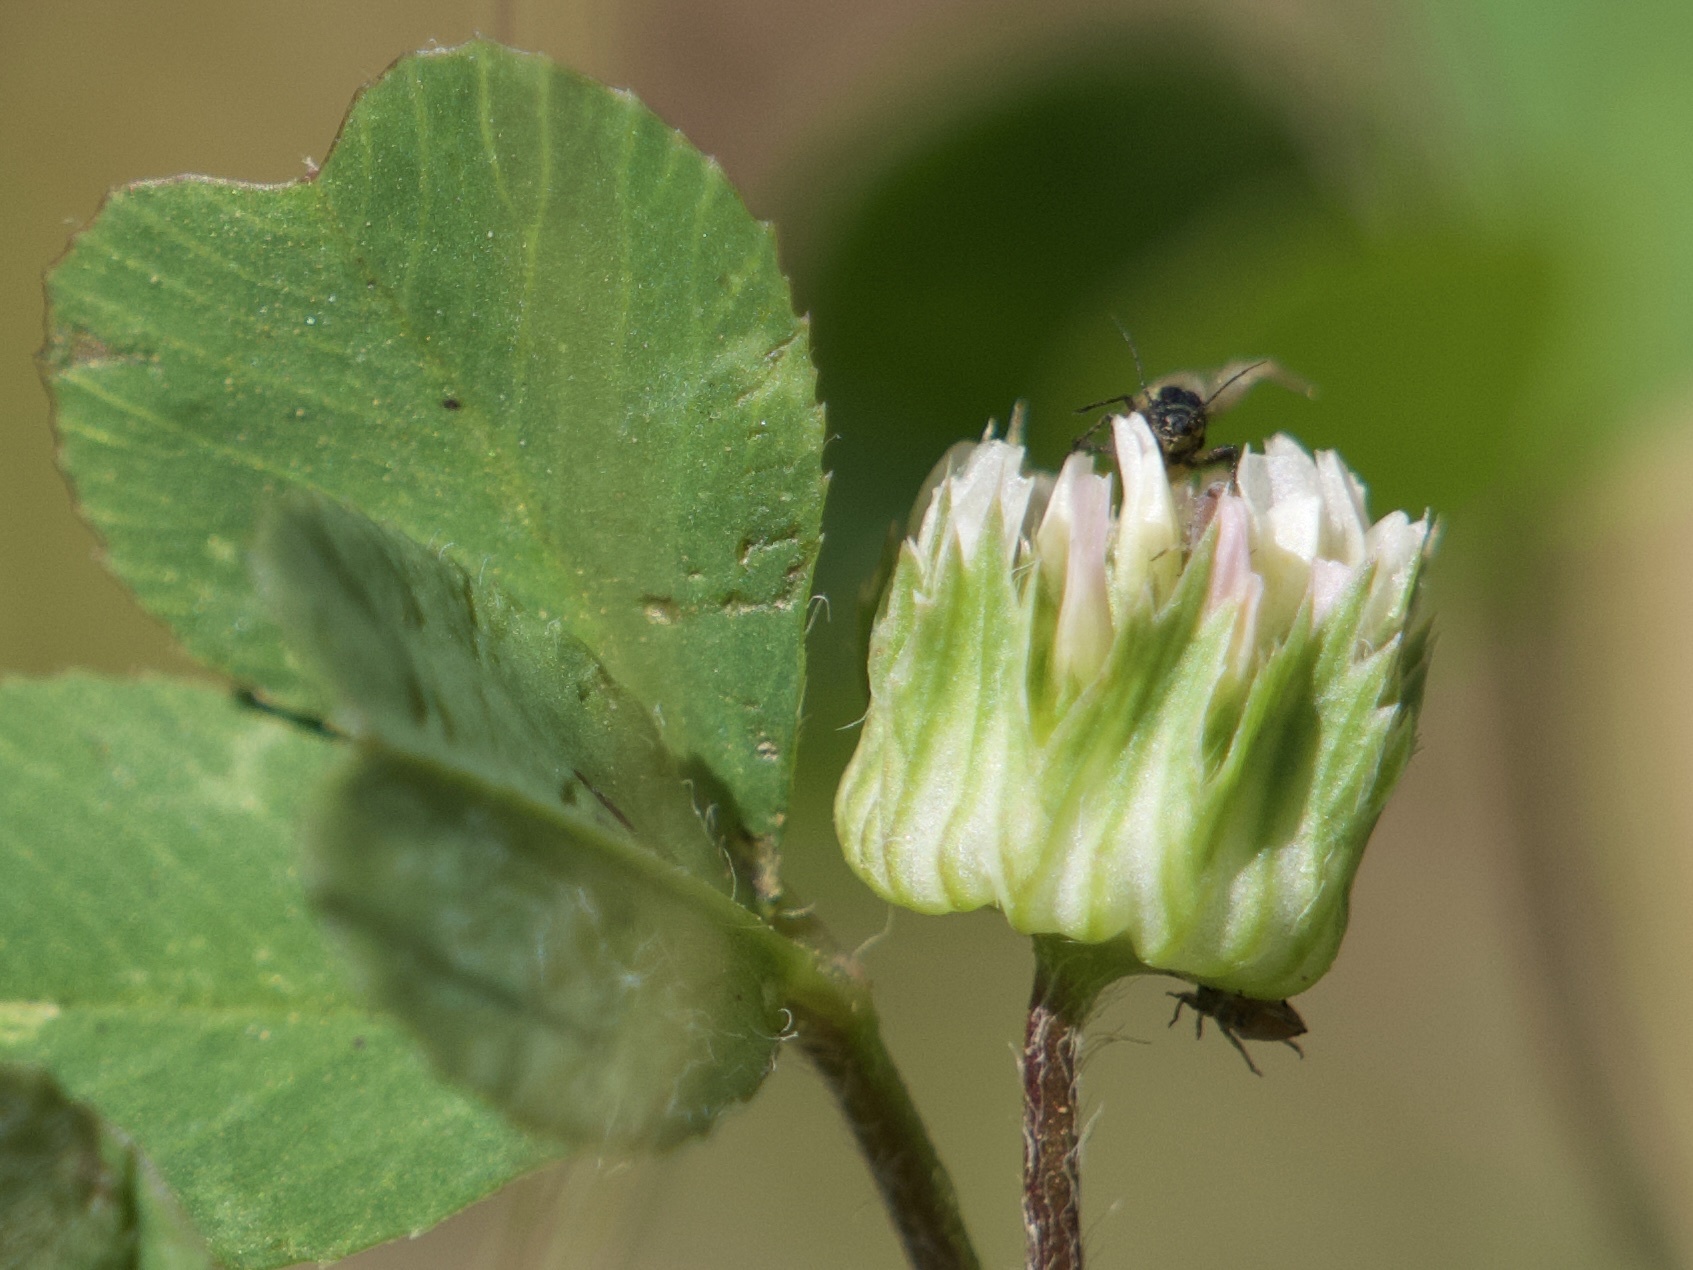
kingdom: Plantae
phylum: Tracheophyta
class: Magnoliopsida
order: Fabales
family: Fabaceae
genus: Trifolium
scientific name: Trifolium microdon
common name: Thimble clover
